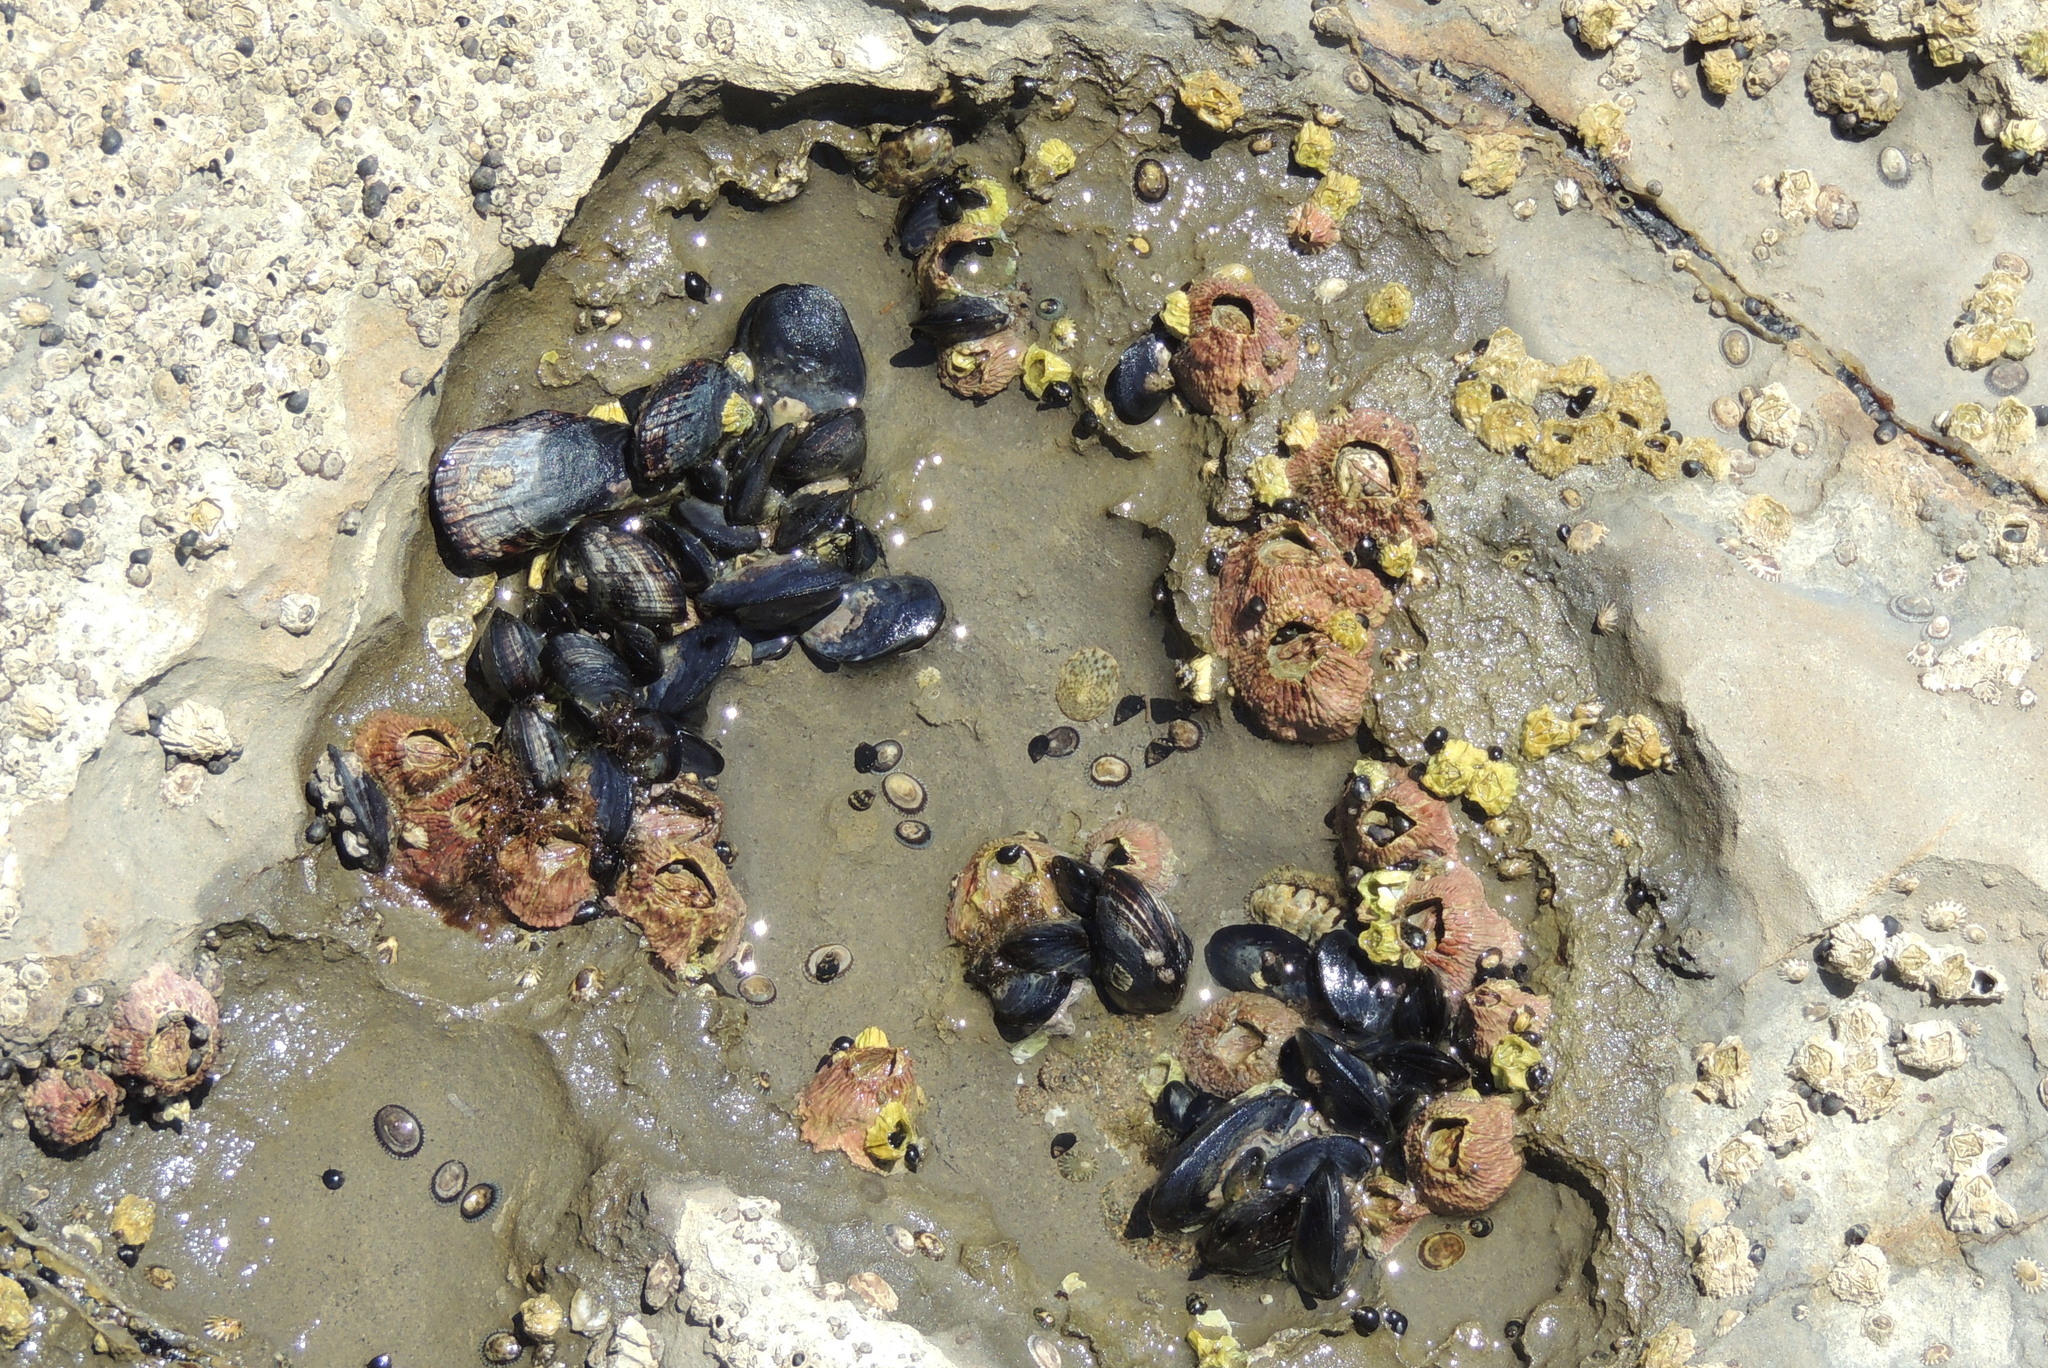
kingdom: Animalia
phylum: Mollusca
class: Bivalvia
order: Mytilida
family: Mytilidae
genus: Mytilus
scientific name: Mytilus californianus
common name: California mussel
